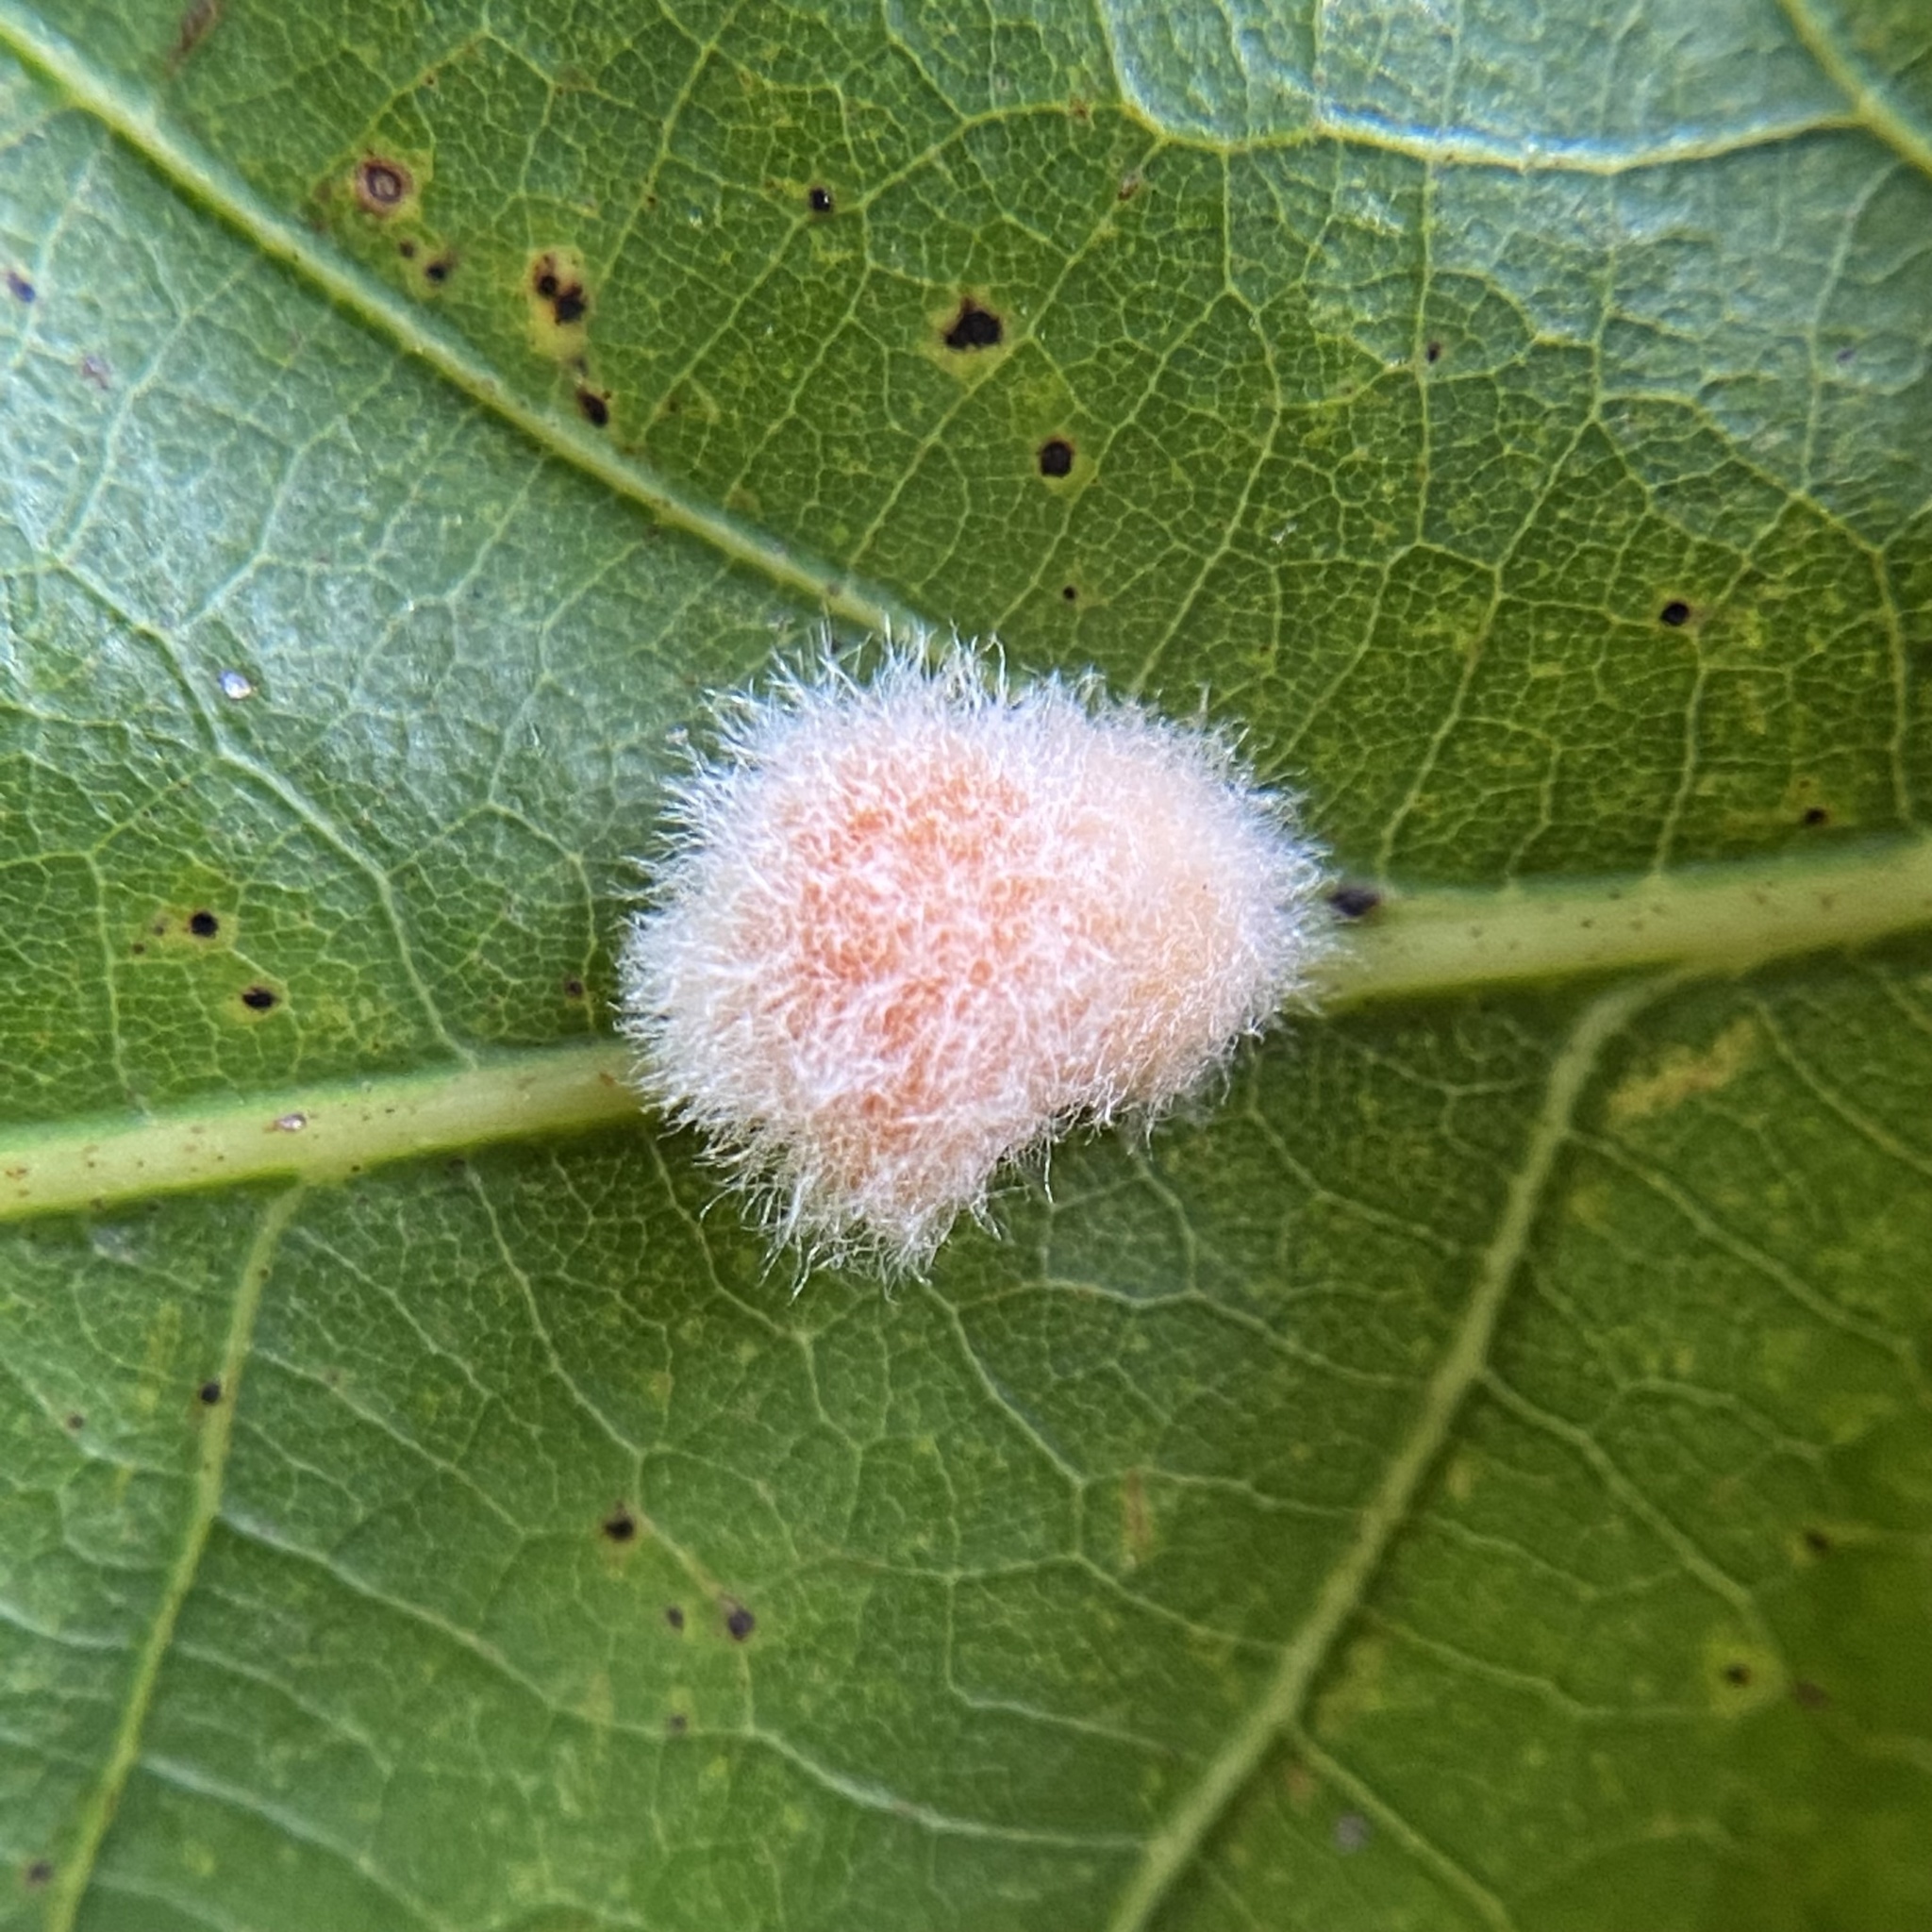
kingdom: Animalia
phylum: Arthropoda
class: Insecta
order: Hymenoptera
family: Cynipidae
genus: Andricus
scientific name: Andricus quercusflocci
